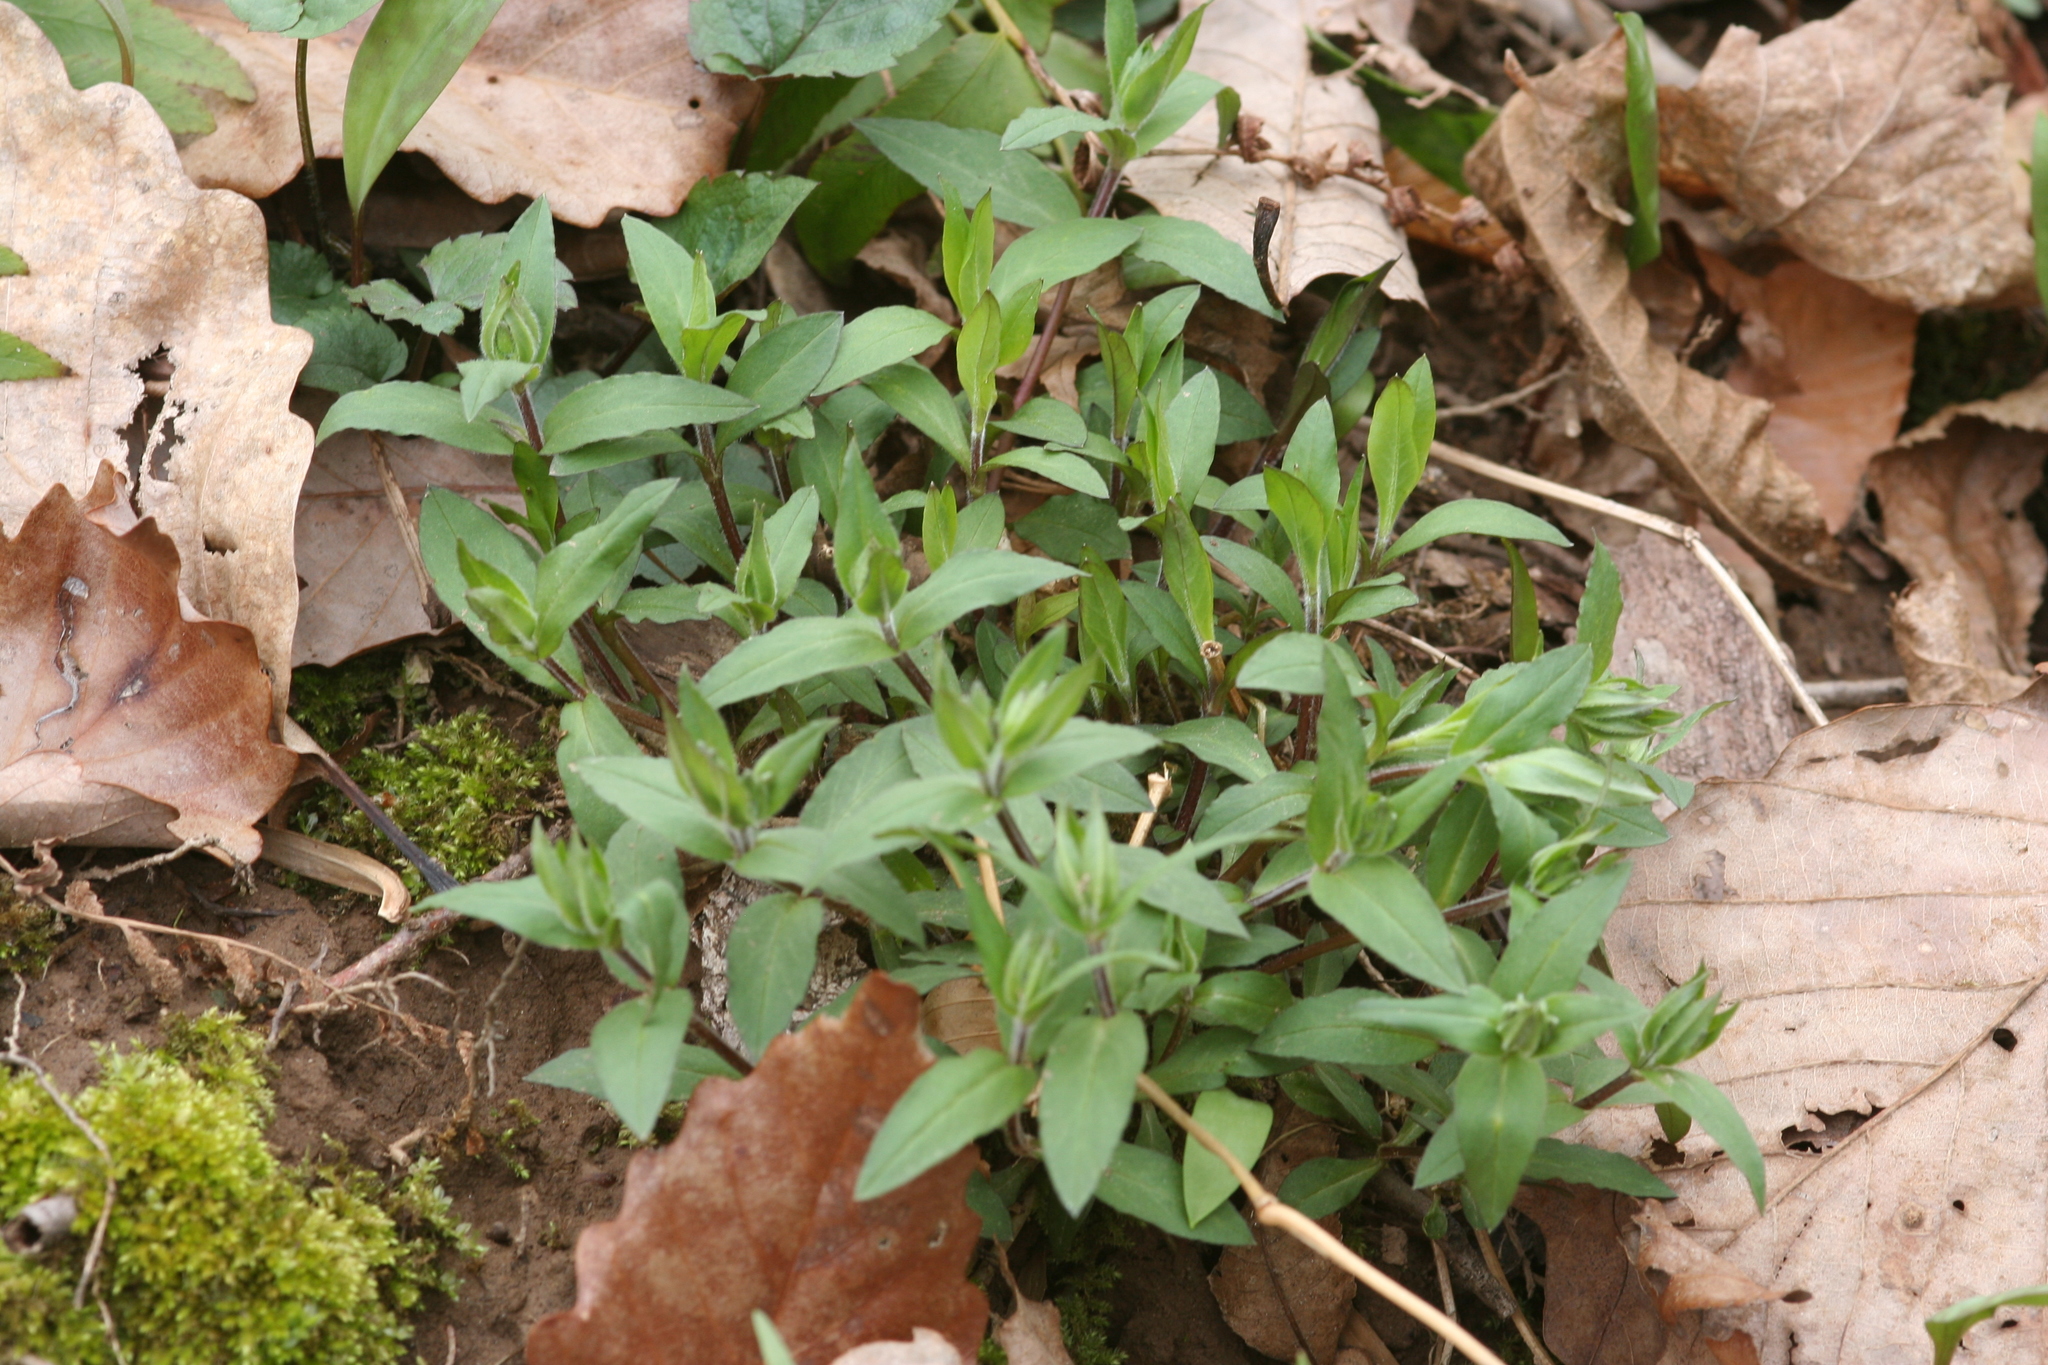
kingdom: Plantae
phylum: Tracheophyta
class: Magnoliopsida
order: Caryophyllales
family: Caryophyllaceae
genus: Stellaria
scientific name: Stellaria pubera
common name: Star chickweed
